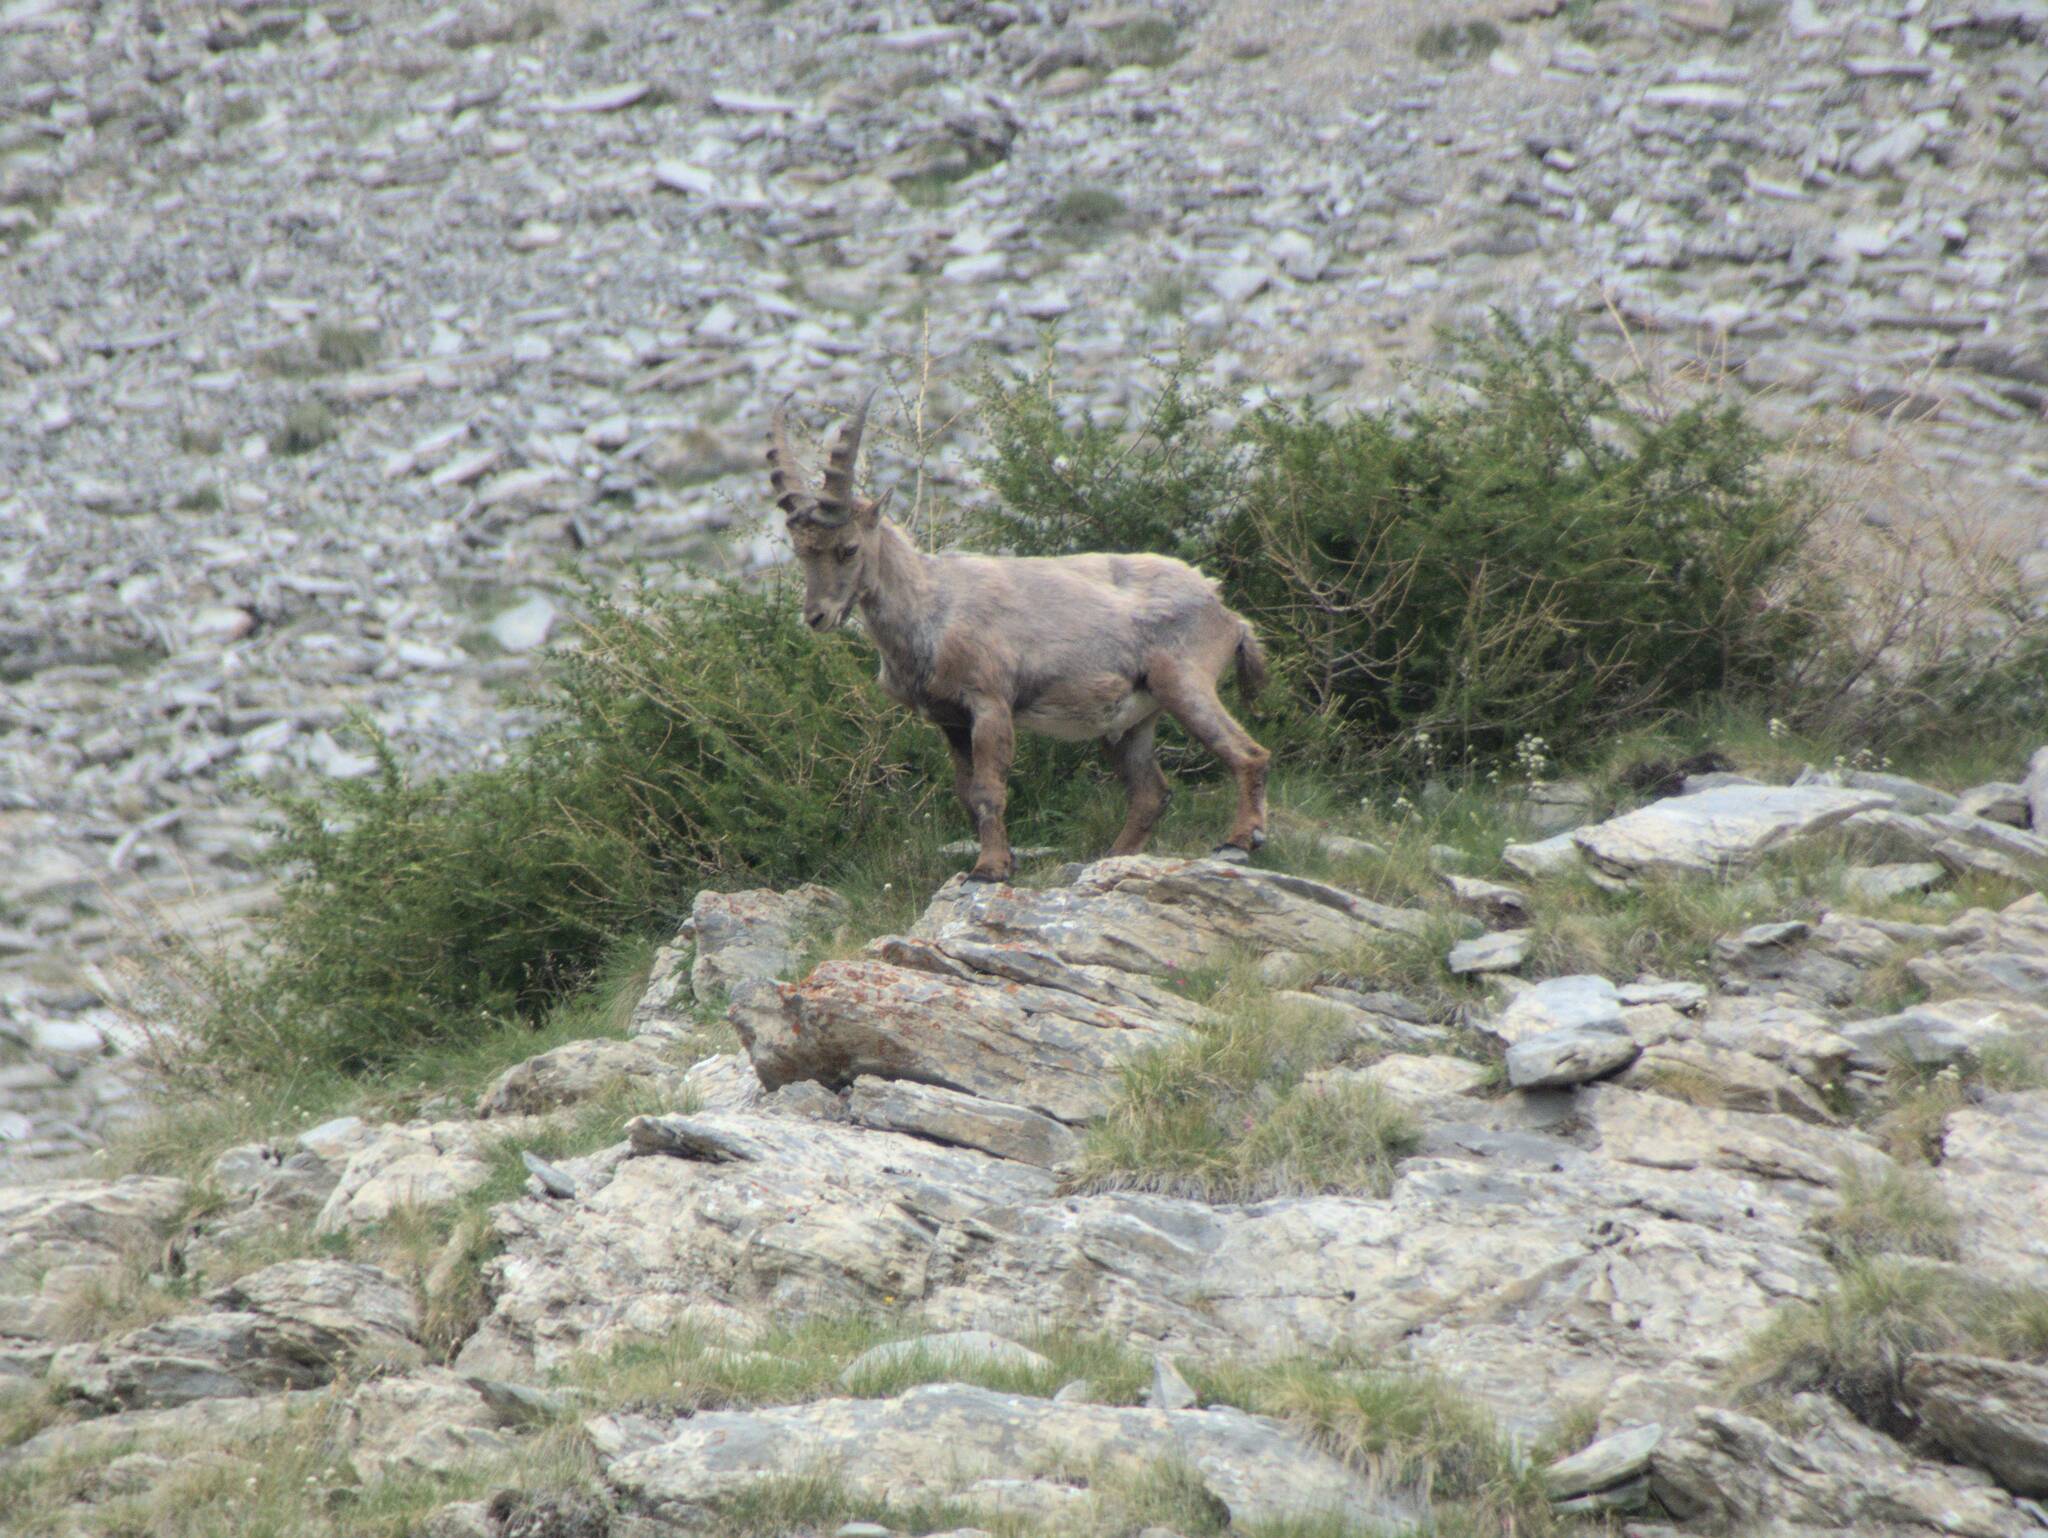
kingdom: Animalia
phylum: Chordata
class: Mammalia
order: Artiodactyla
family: Bovidae
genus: Capra
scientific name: Capra ibex
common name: Alpine ibex
